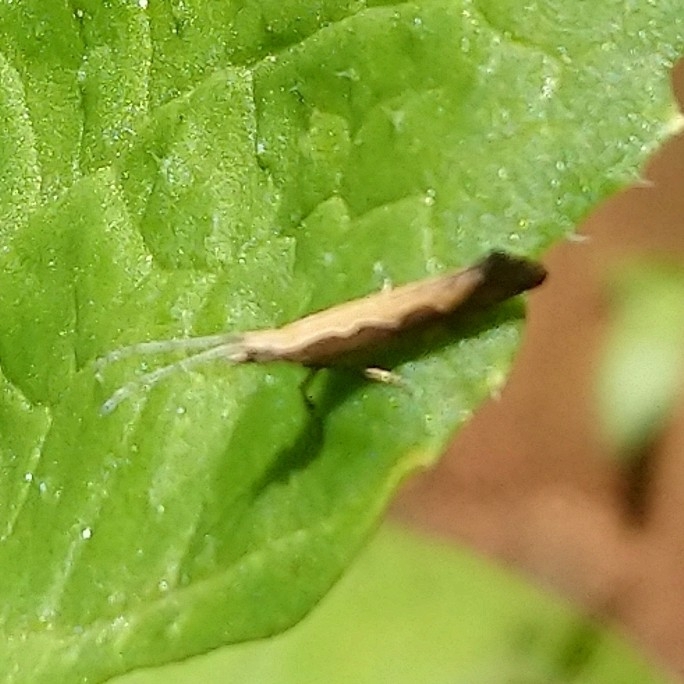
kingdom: Animalia
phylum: Arthropoda
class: Insecta
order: Lepidoptera
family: Plutellidae
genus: Plutella
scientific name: Plutella xylostella
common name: Diamond-back moth
